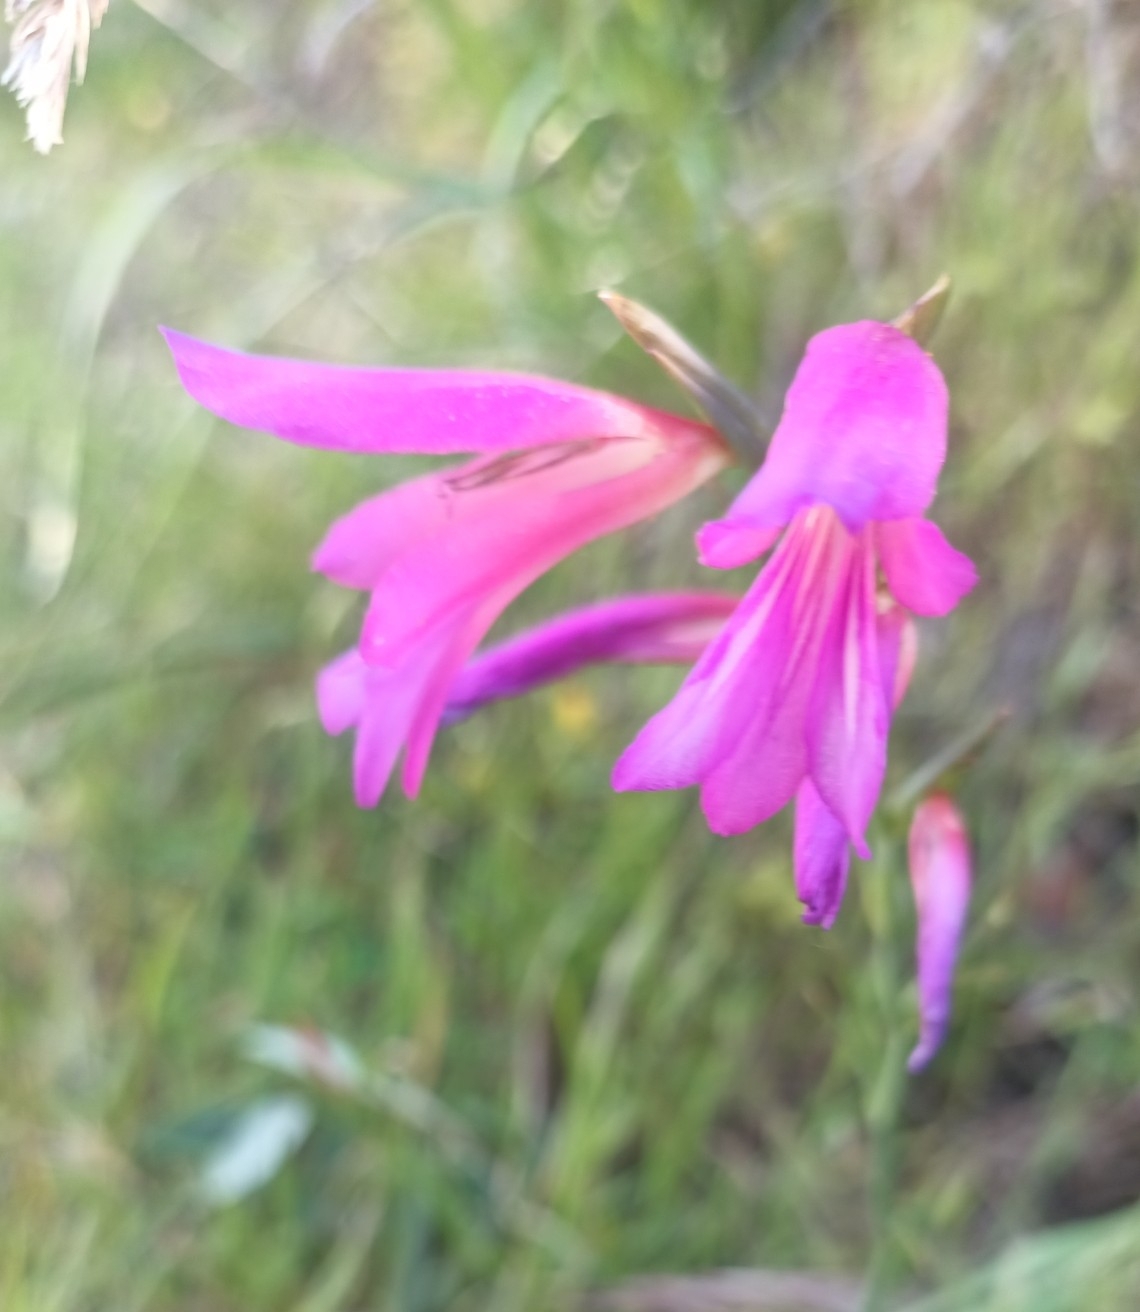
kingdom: Plantae
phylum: Tracheophyta
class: Liliopsida
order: Asparagales
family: Iridaceae
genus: Gladiolus
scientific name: Gladiolus italicus
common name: Field gladiolus
